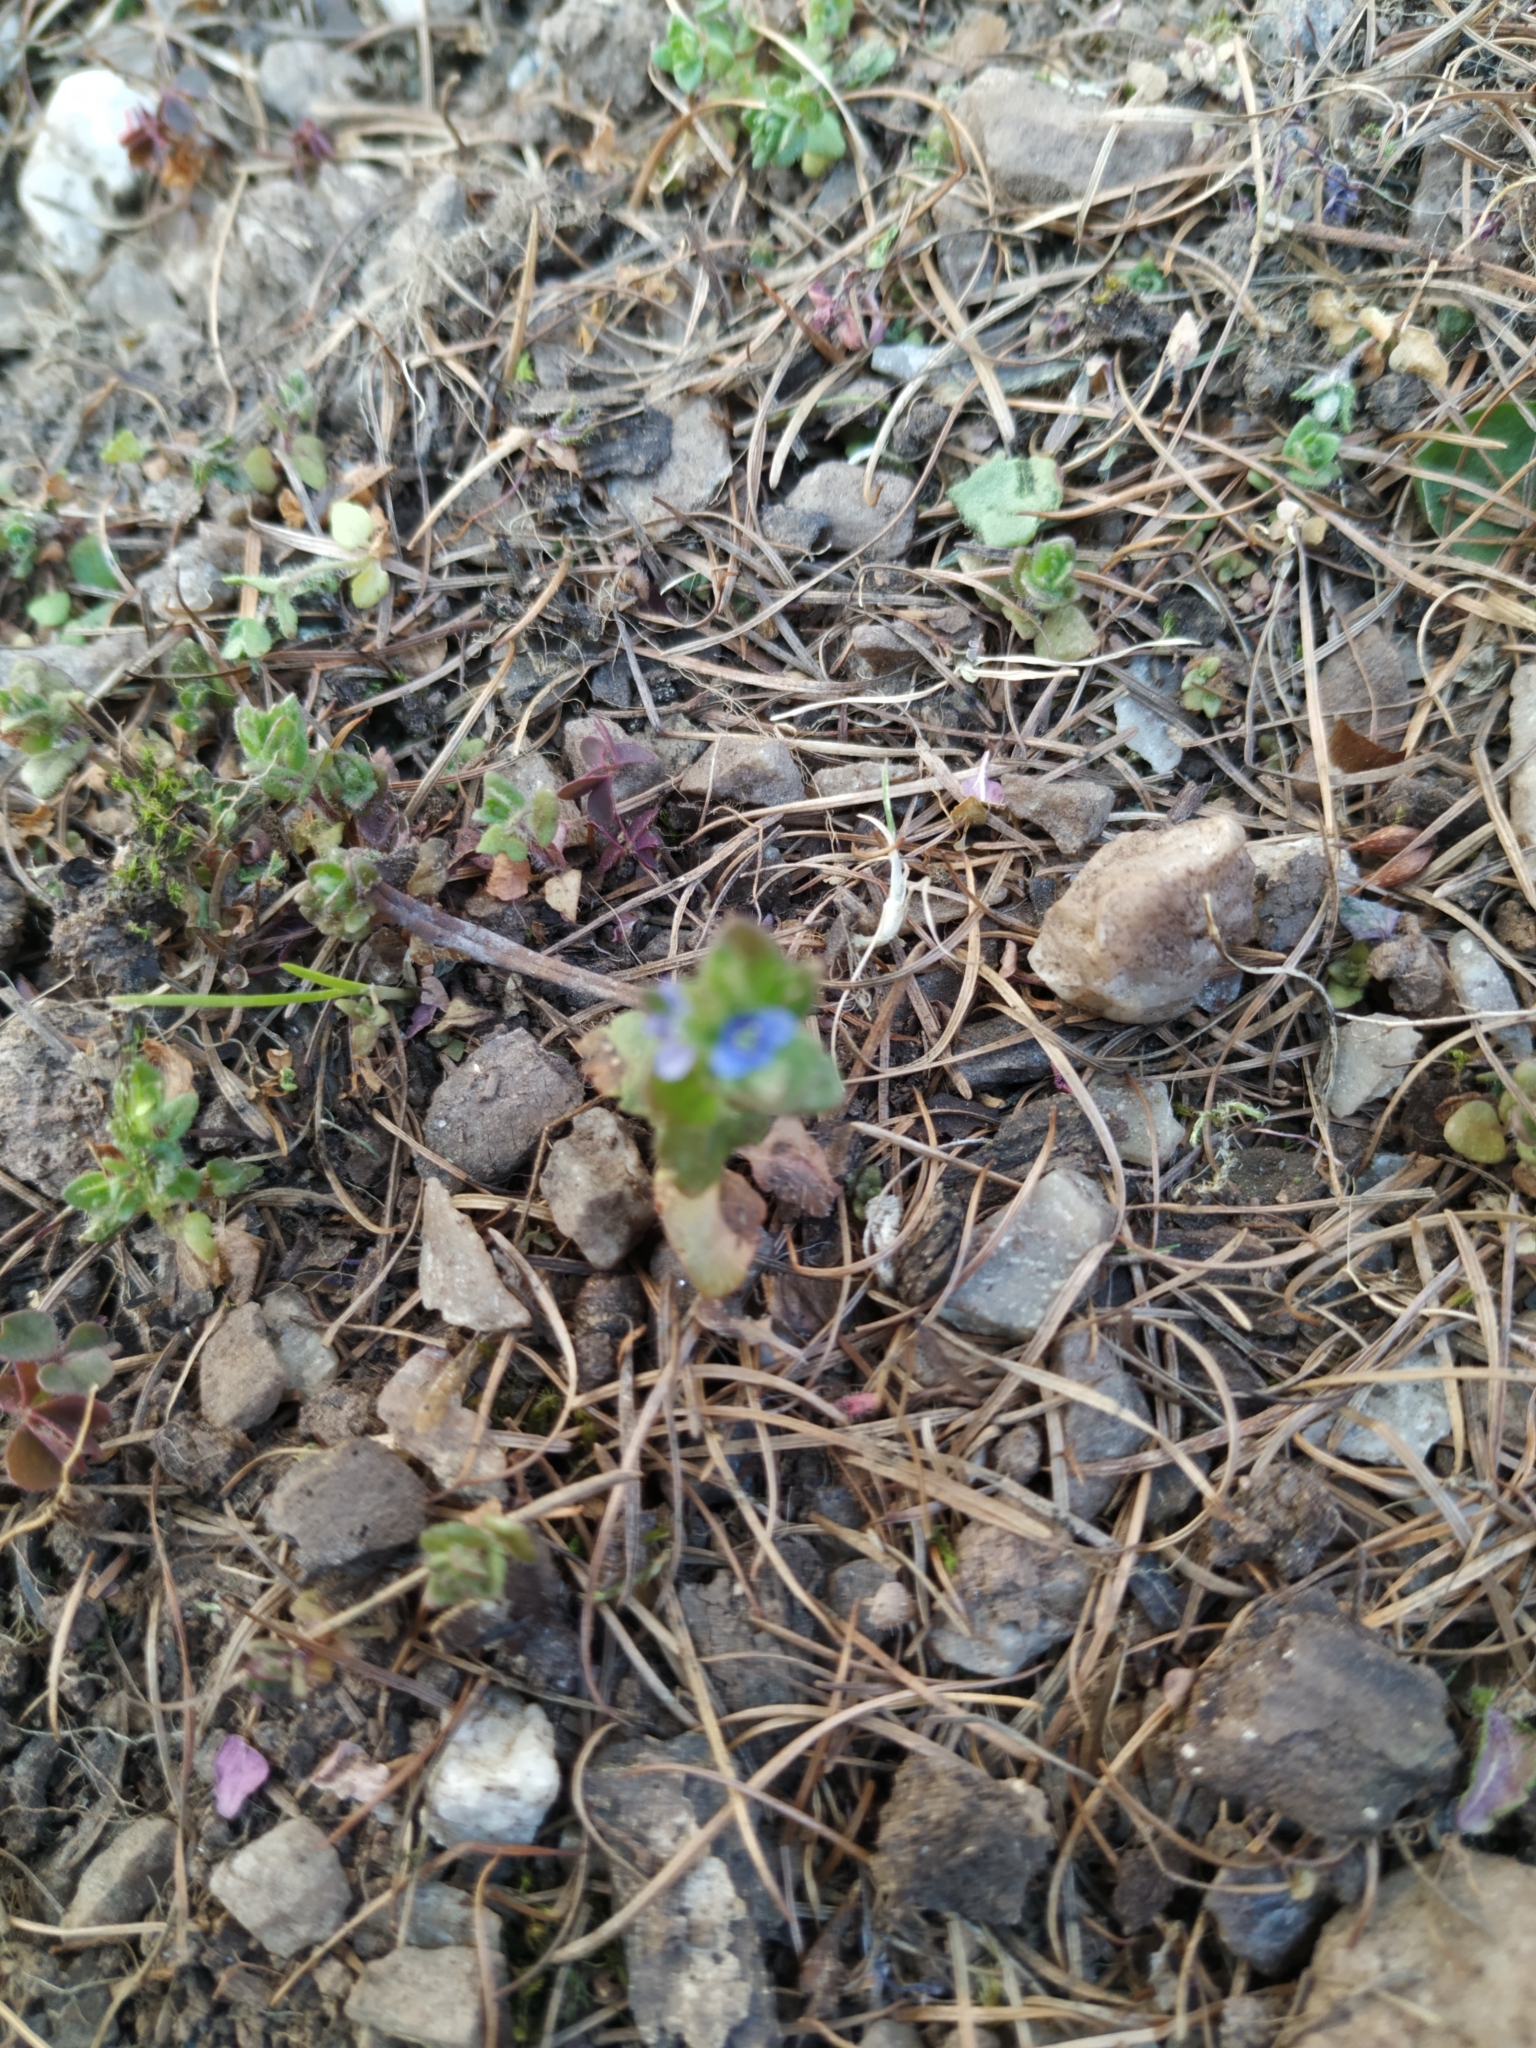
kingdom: Plantae
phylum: Tracheophyta
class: Magnoliopsida
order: Lamiales
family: Plantaginaceae
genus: Veronica
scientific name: Veronica arvensis
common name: Corn speedwell
